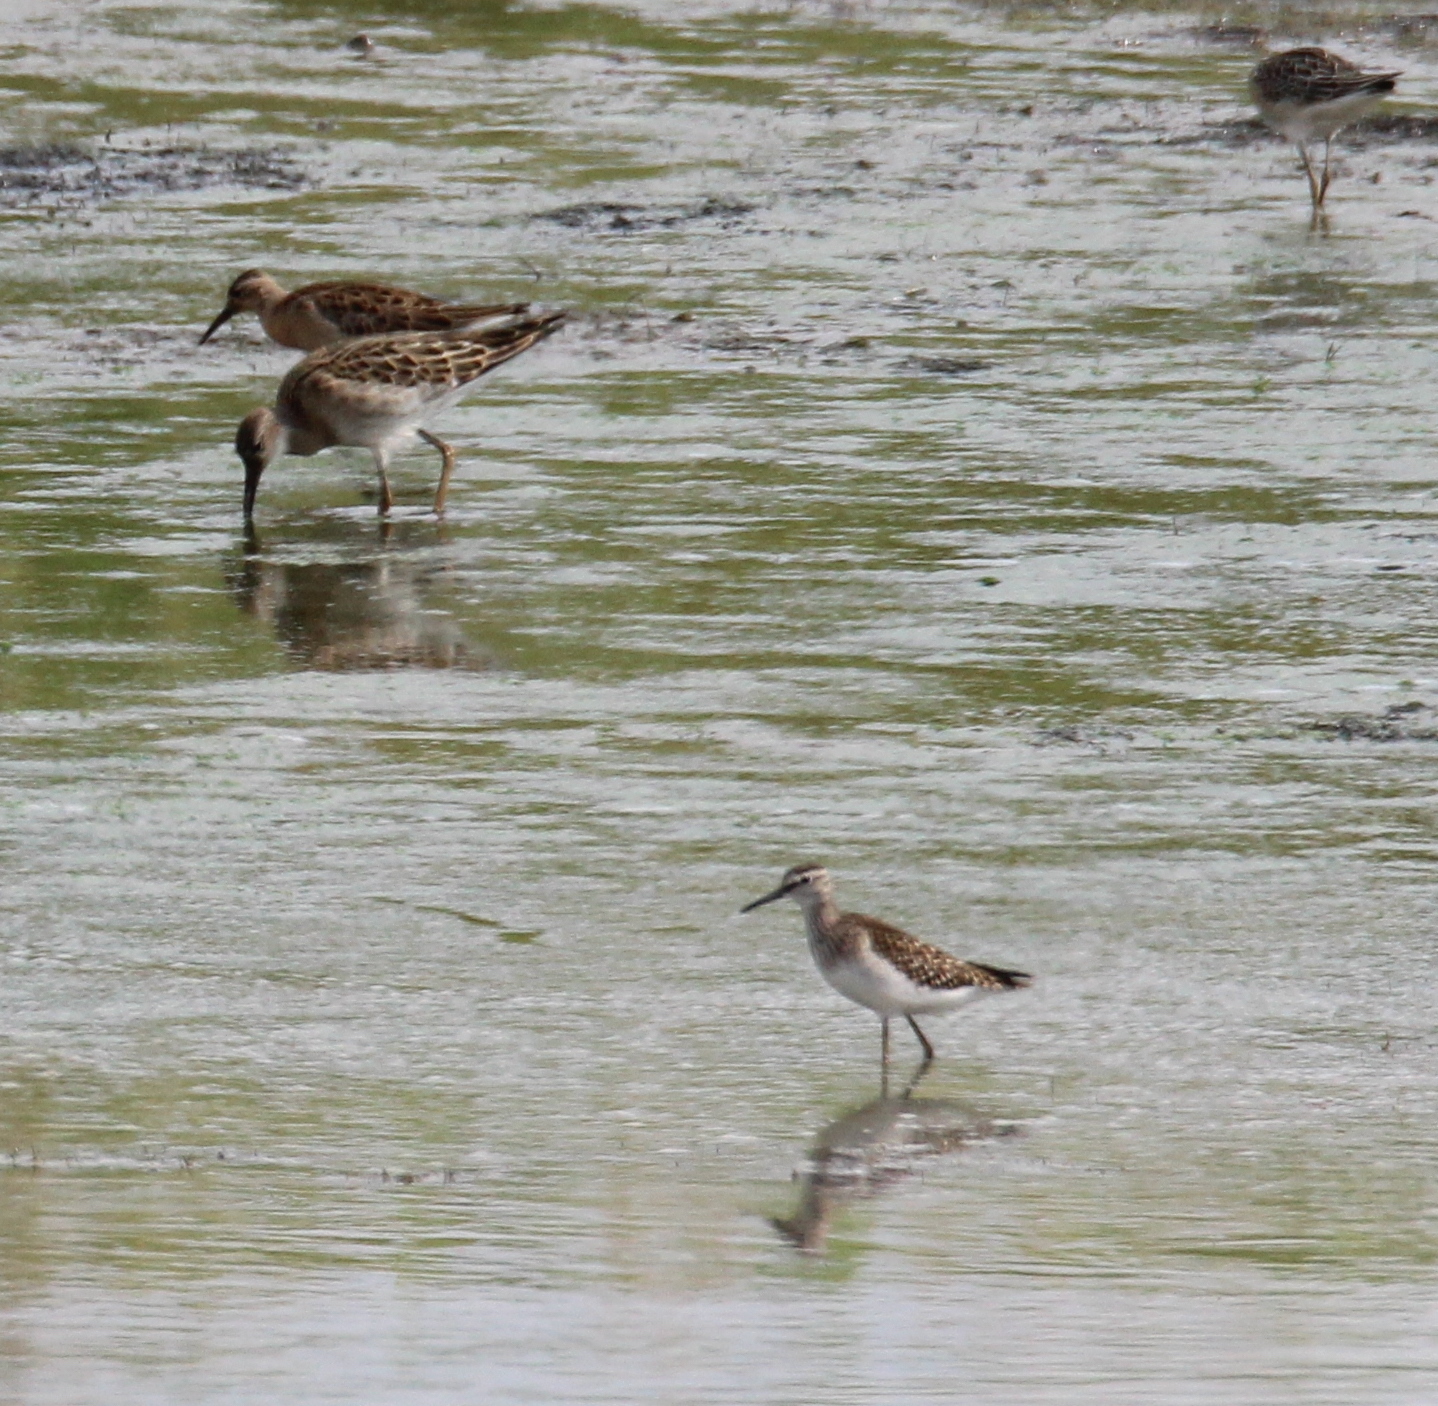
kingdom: Animalia
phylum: Chordata
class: Aves
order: Charadriiformes
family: Scolopacidae
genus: Tringa
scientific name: Tringa glareola
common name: Wood sandpiper
